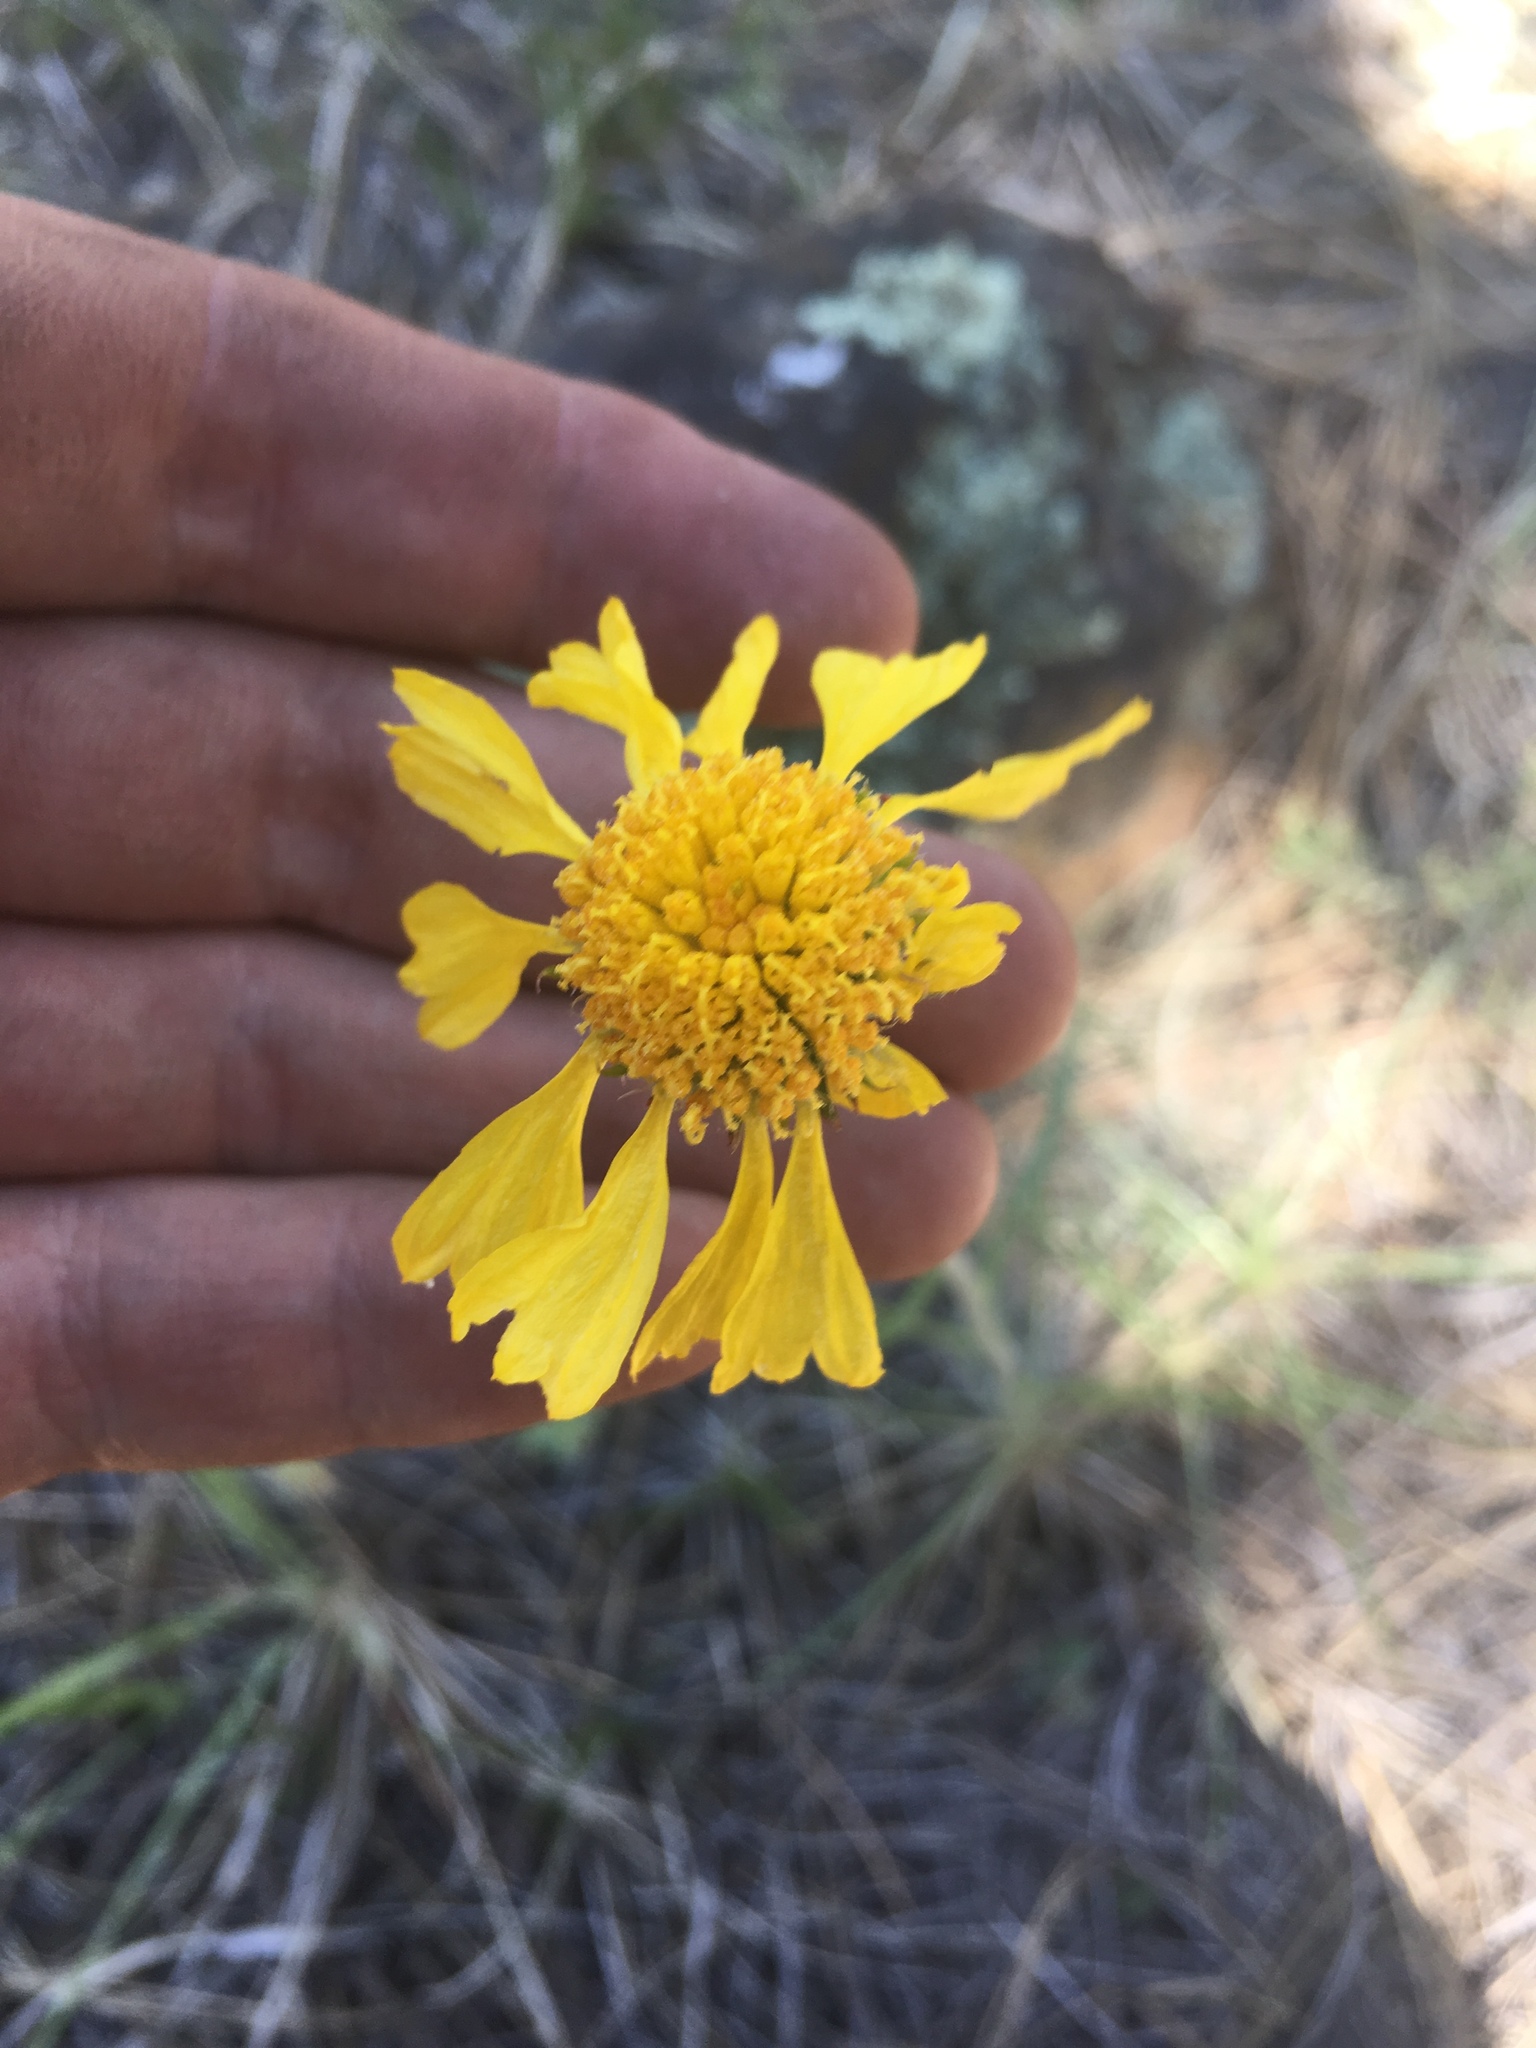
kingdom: Plantae
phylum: Tracheophyta
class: Magnoliopsida
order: Asterales
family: Asteraceae
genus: Hymenoxys
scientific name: Hymenoxys bigelovii
